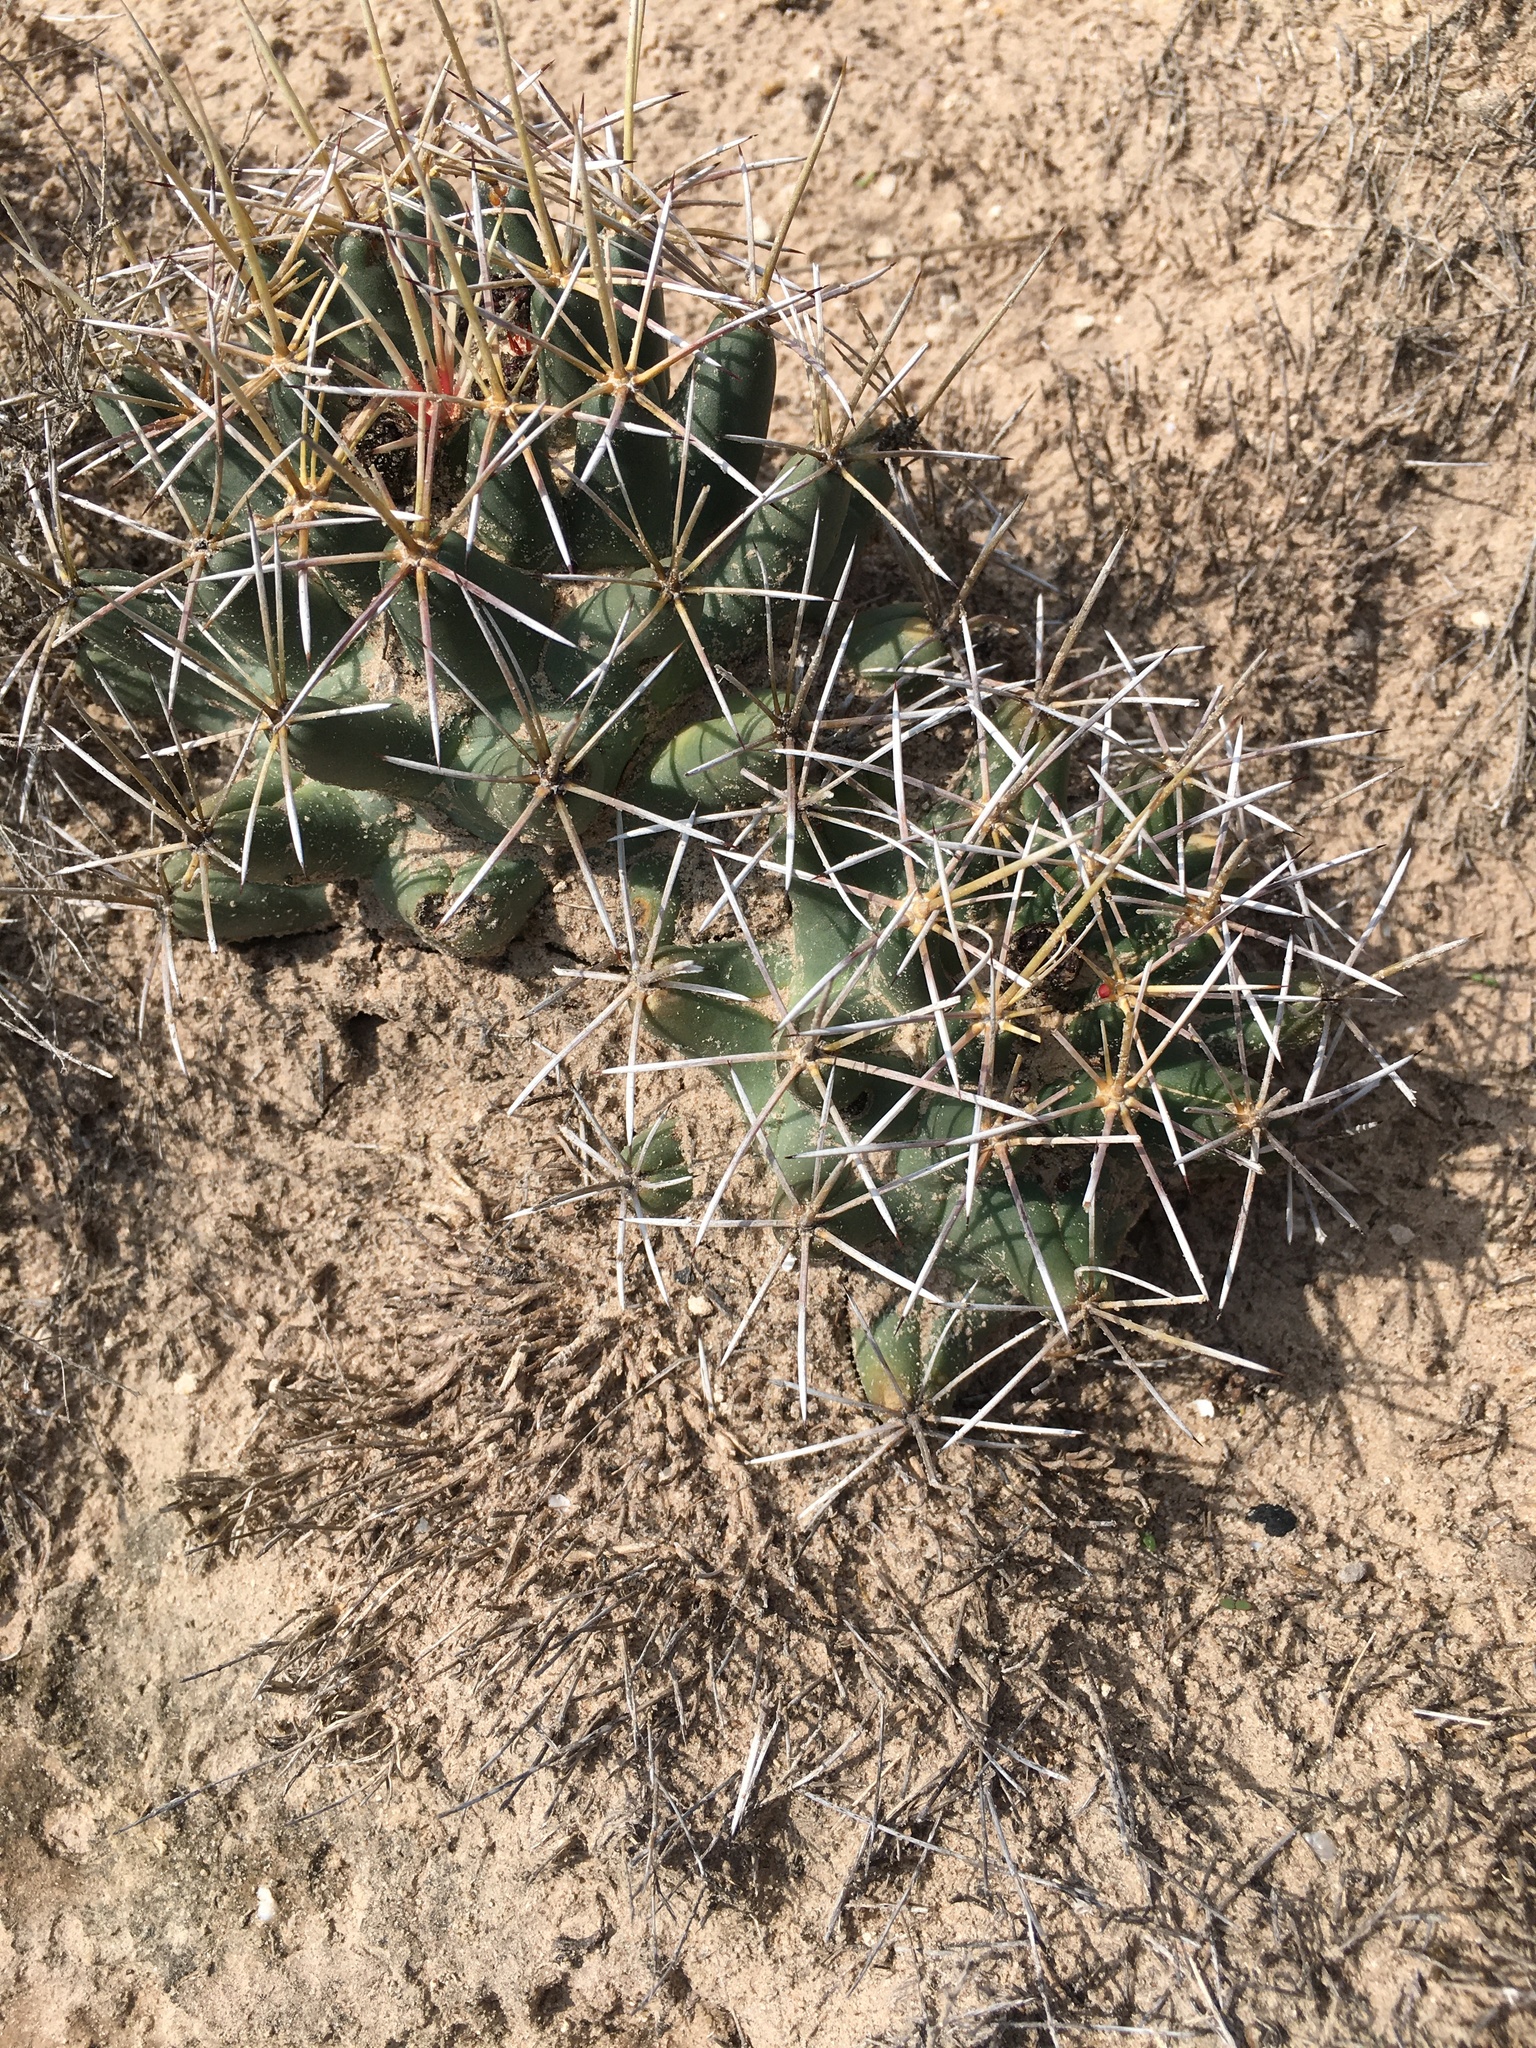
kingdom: Plantae
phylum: Tracheophyta
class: Magnoliopsida
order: Caryophyllales
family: Cactaceae
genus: Coryphantha
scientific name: Coryphantha robustispina
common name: Pima pineapple cactus
